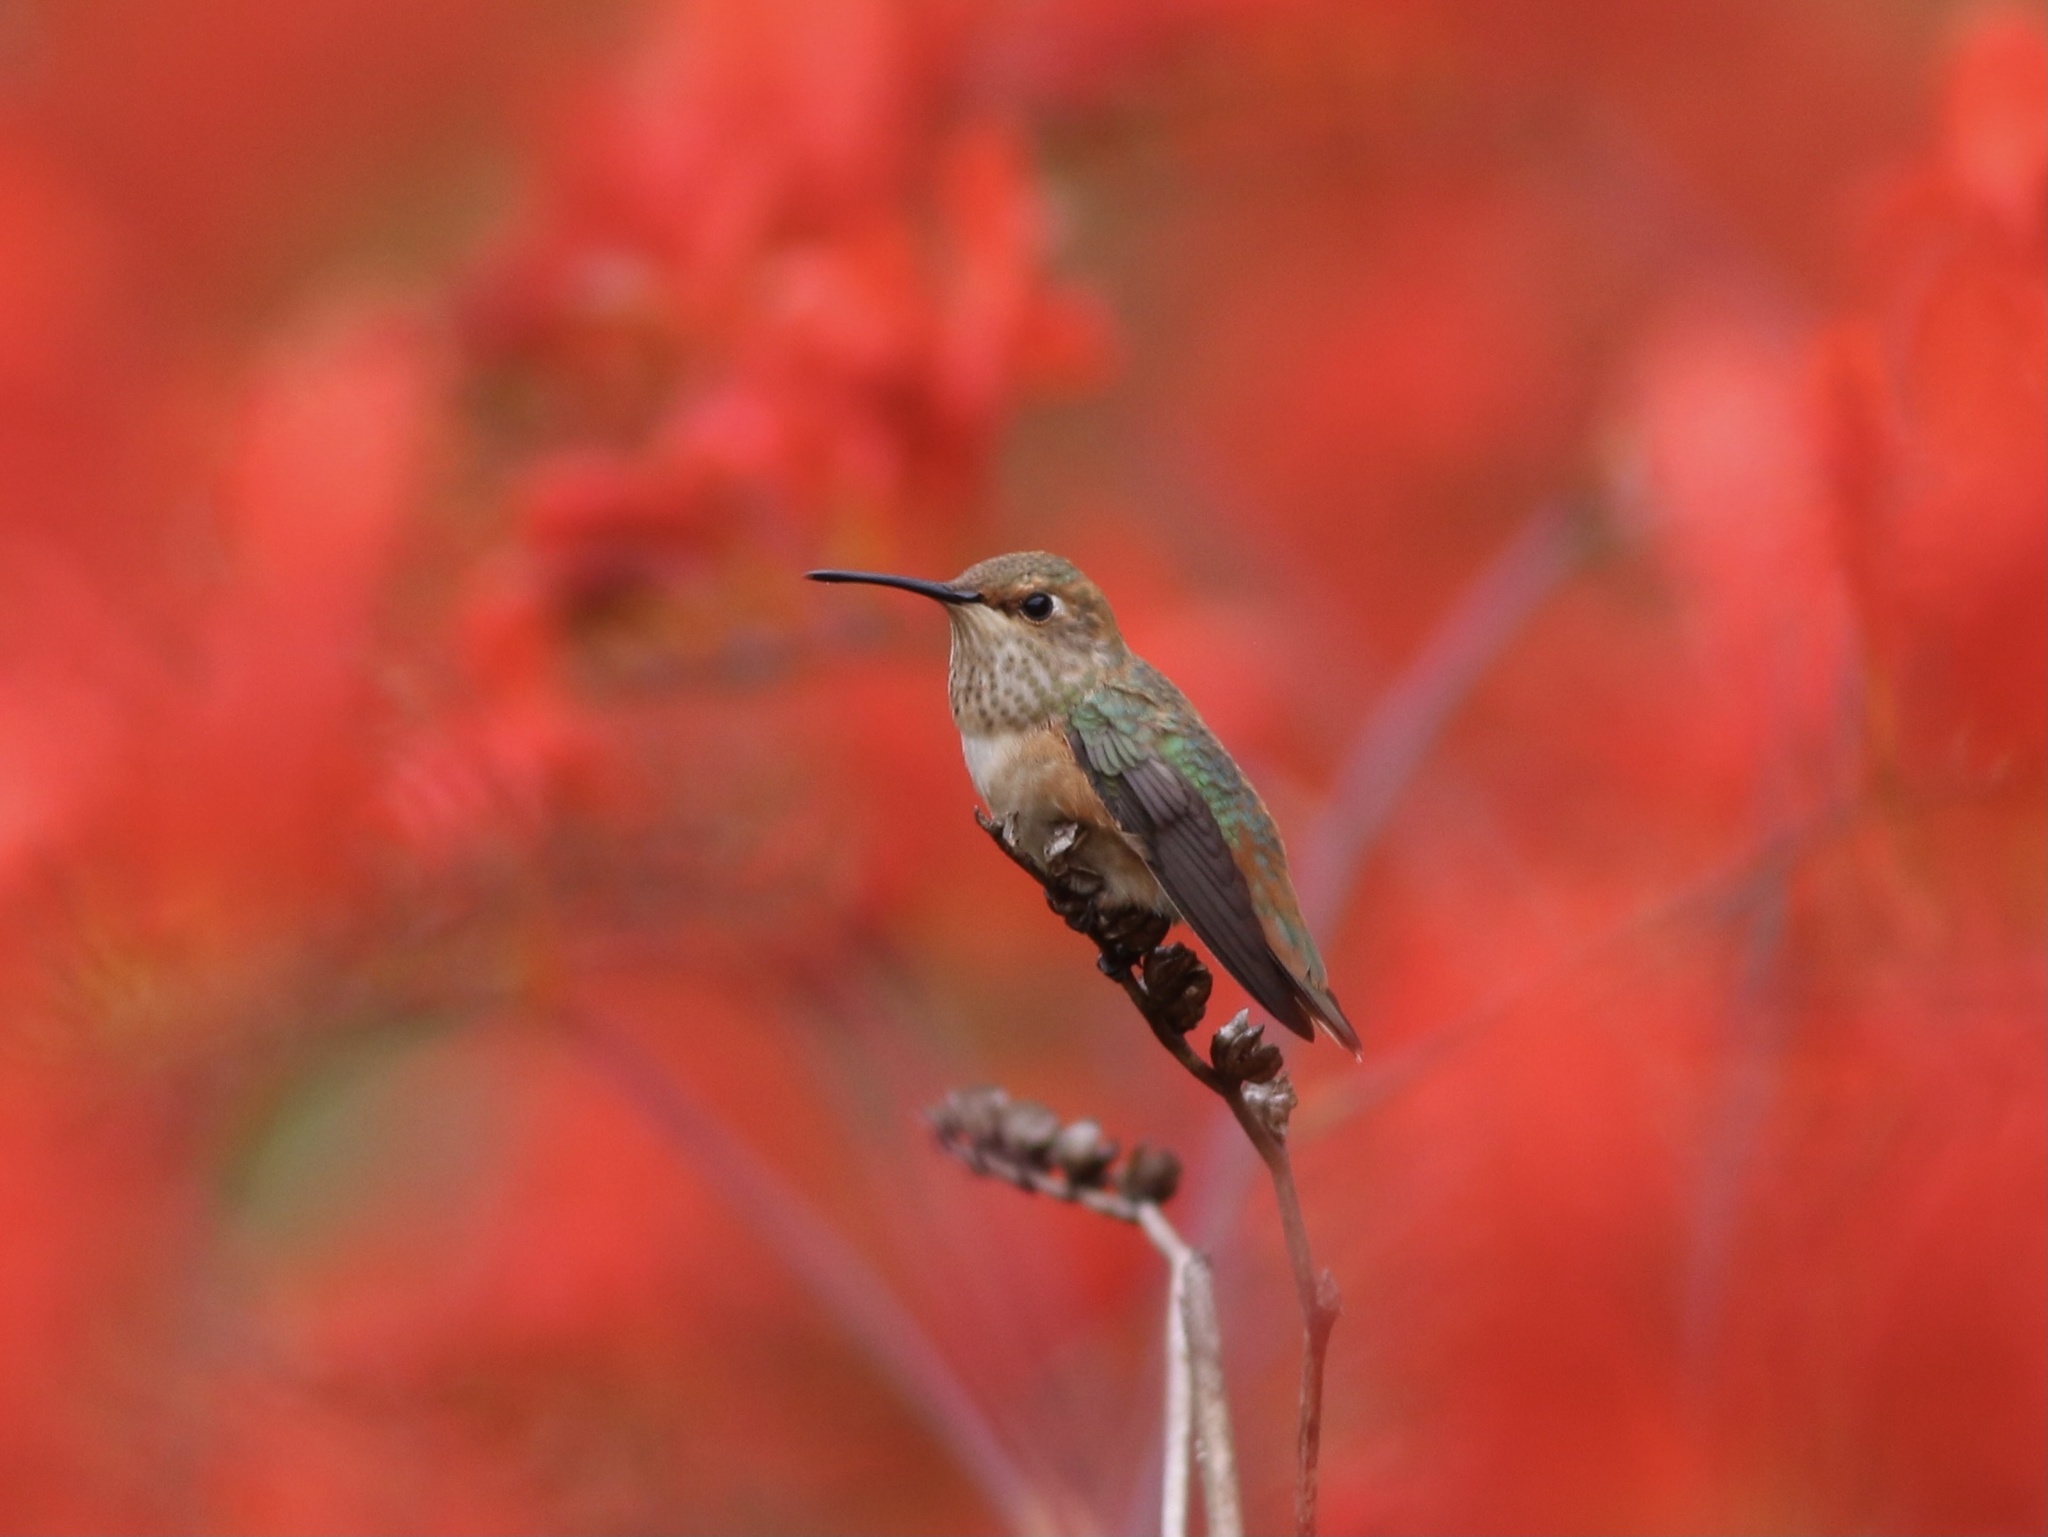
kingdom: Animalia
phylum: Chordata
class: Aves
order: Apodiformes
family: Trochilidae
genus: Selasphorus
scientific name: Selasphorus sasin
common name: Allen's hummingbird
